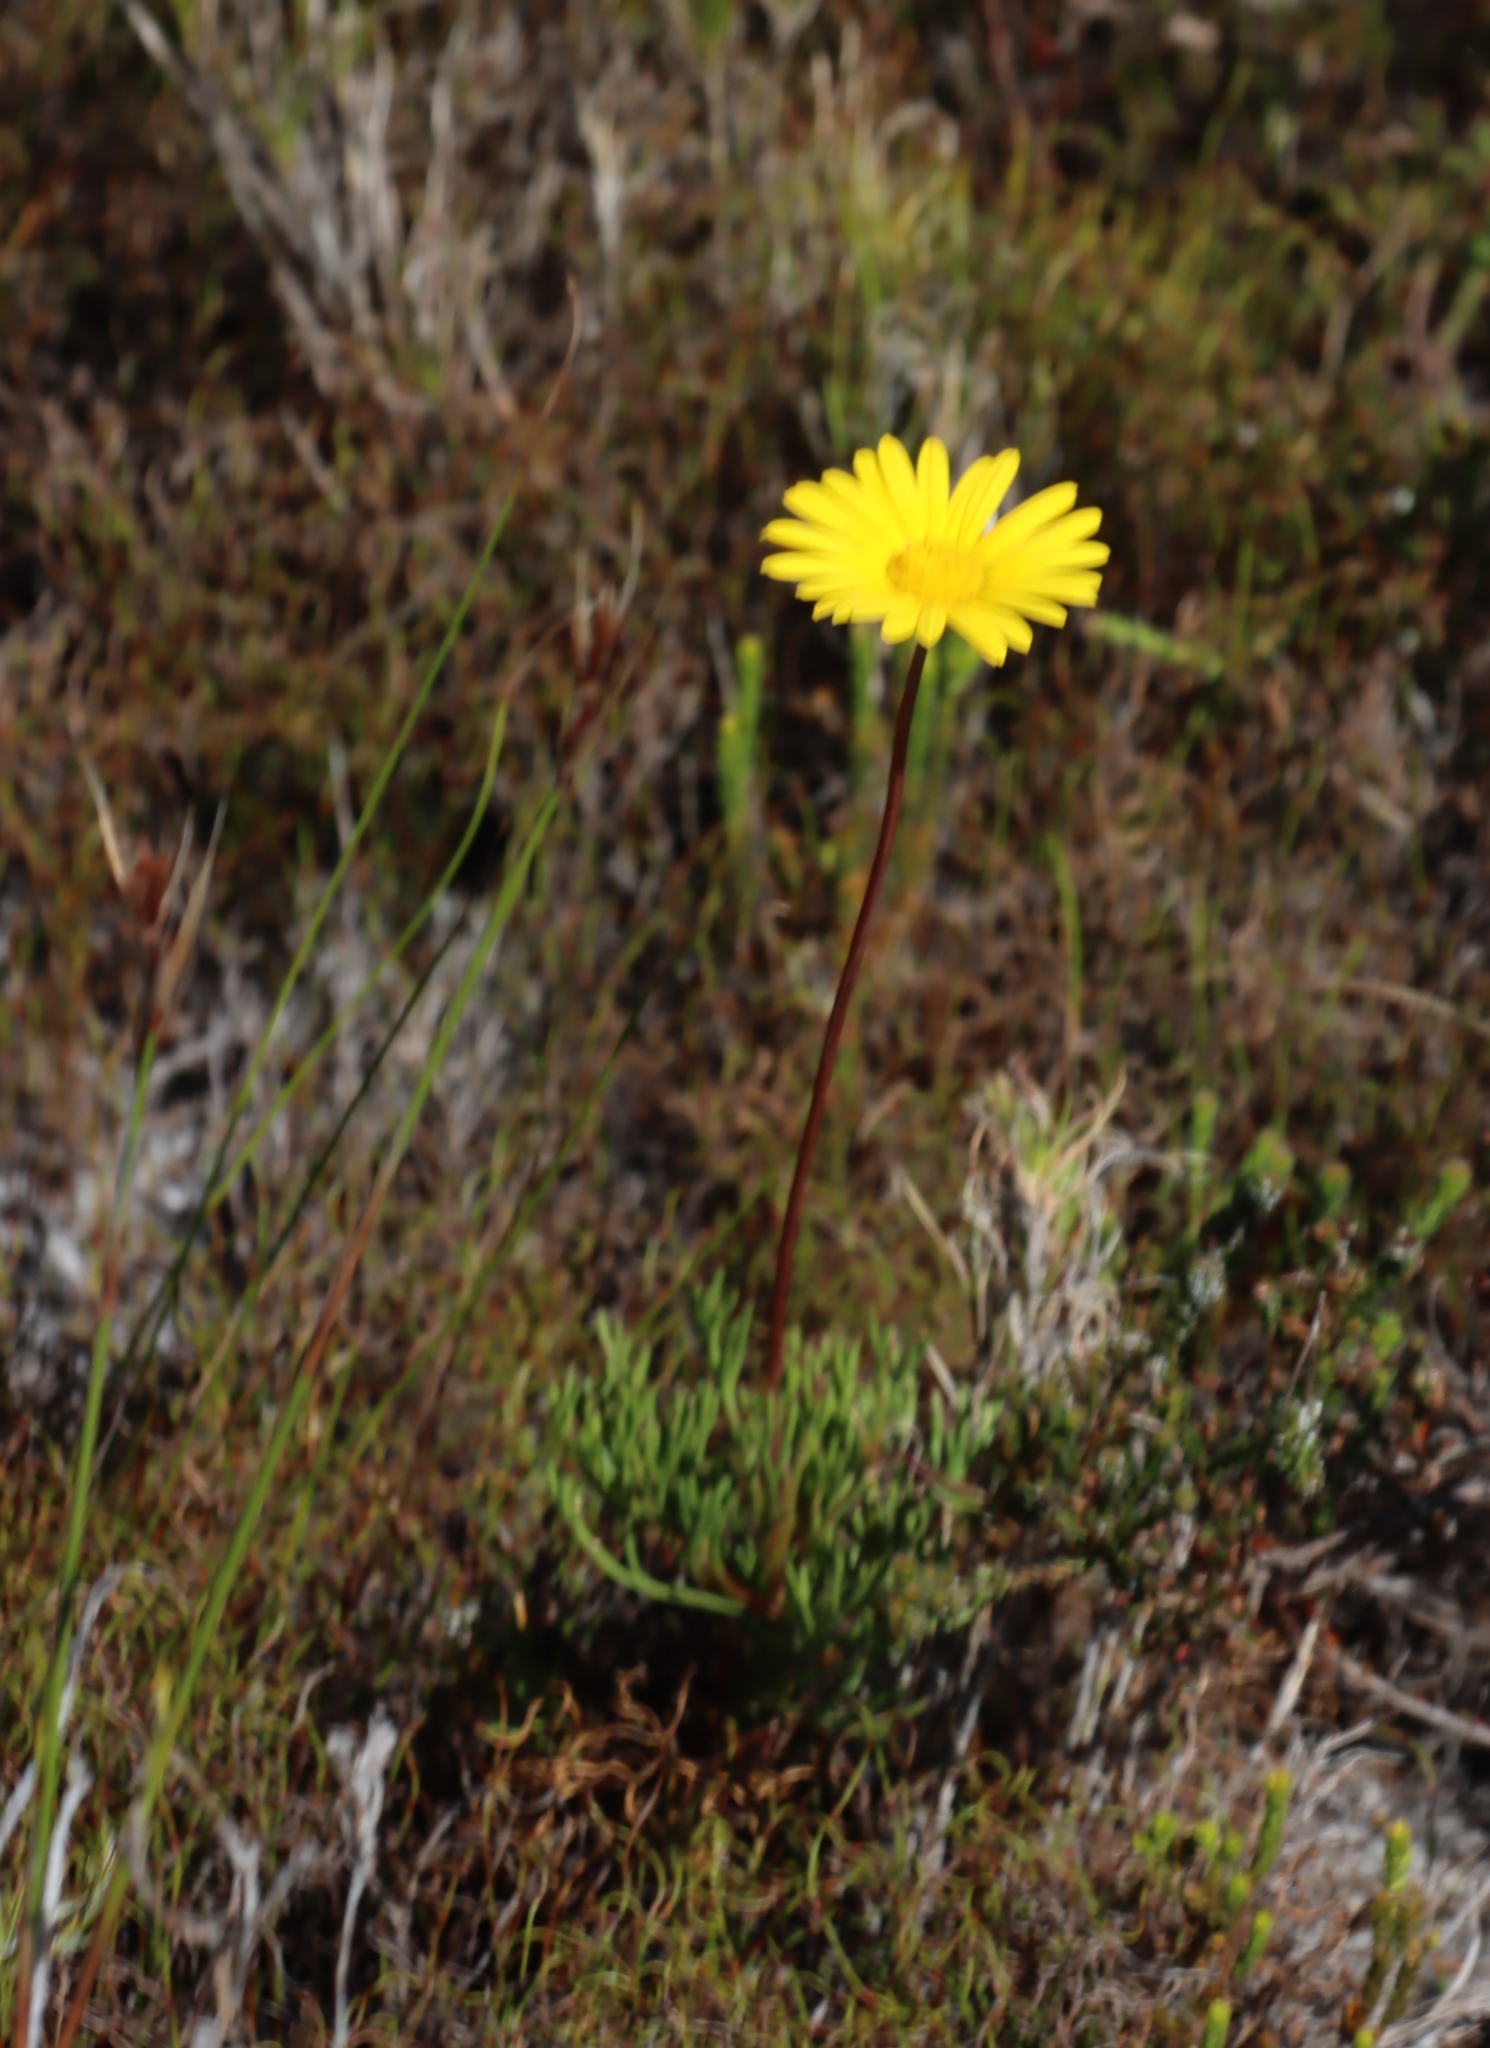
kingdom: Plantae
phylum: Tracheophyta
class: Magnoliopsida
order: Asterales
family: Asteraceae
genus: Euryops
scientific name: Euryops abrotanifolius
